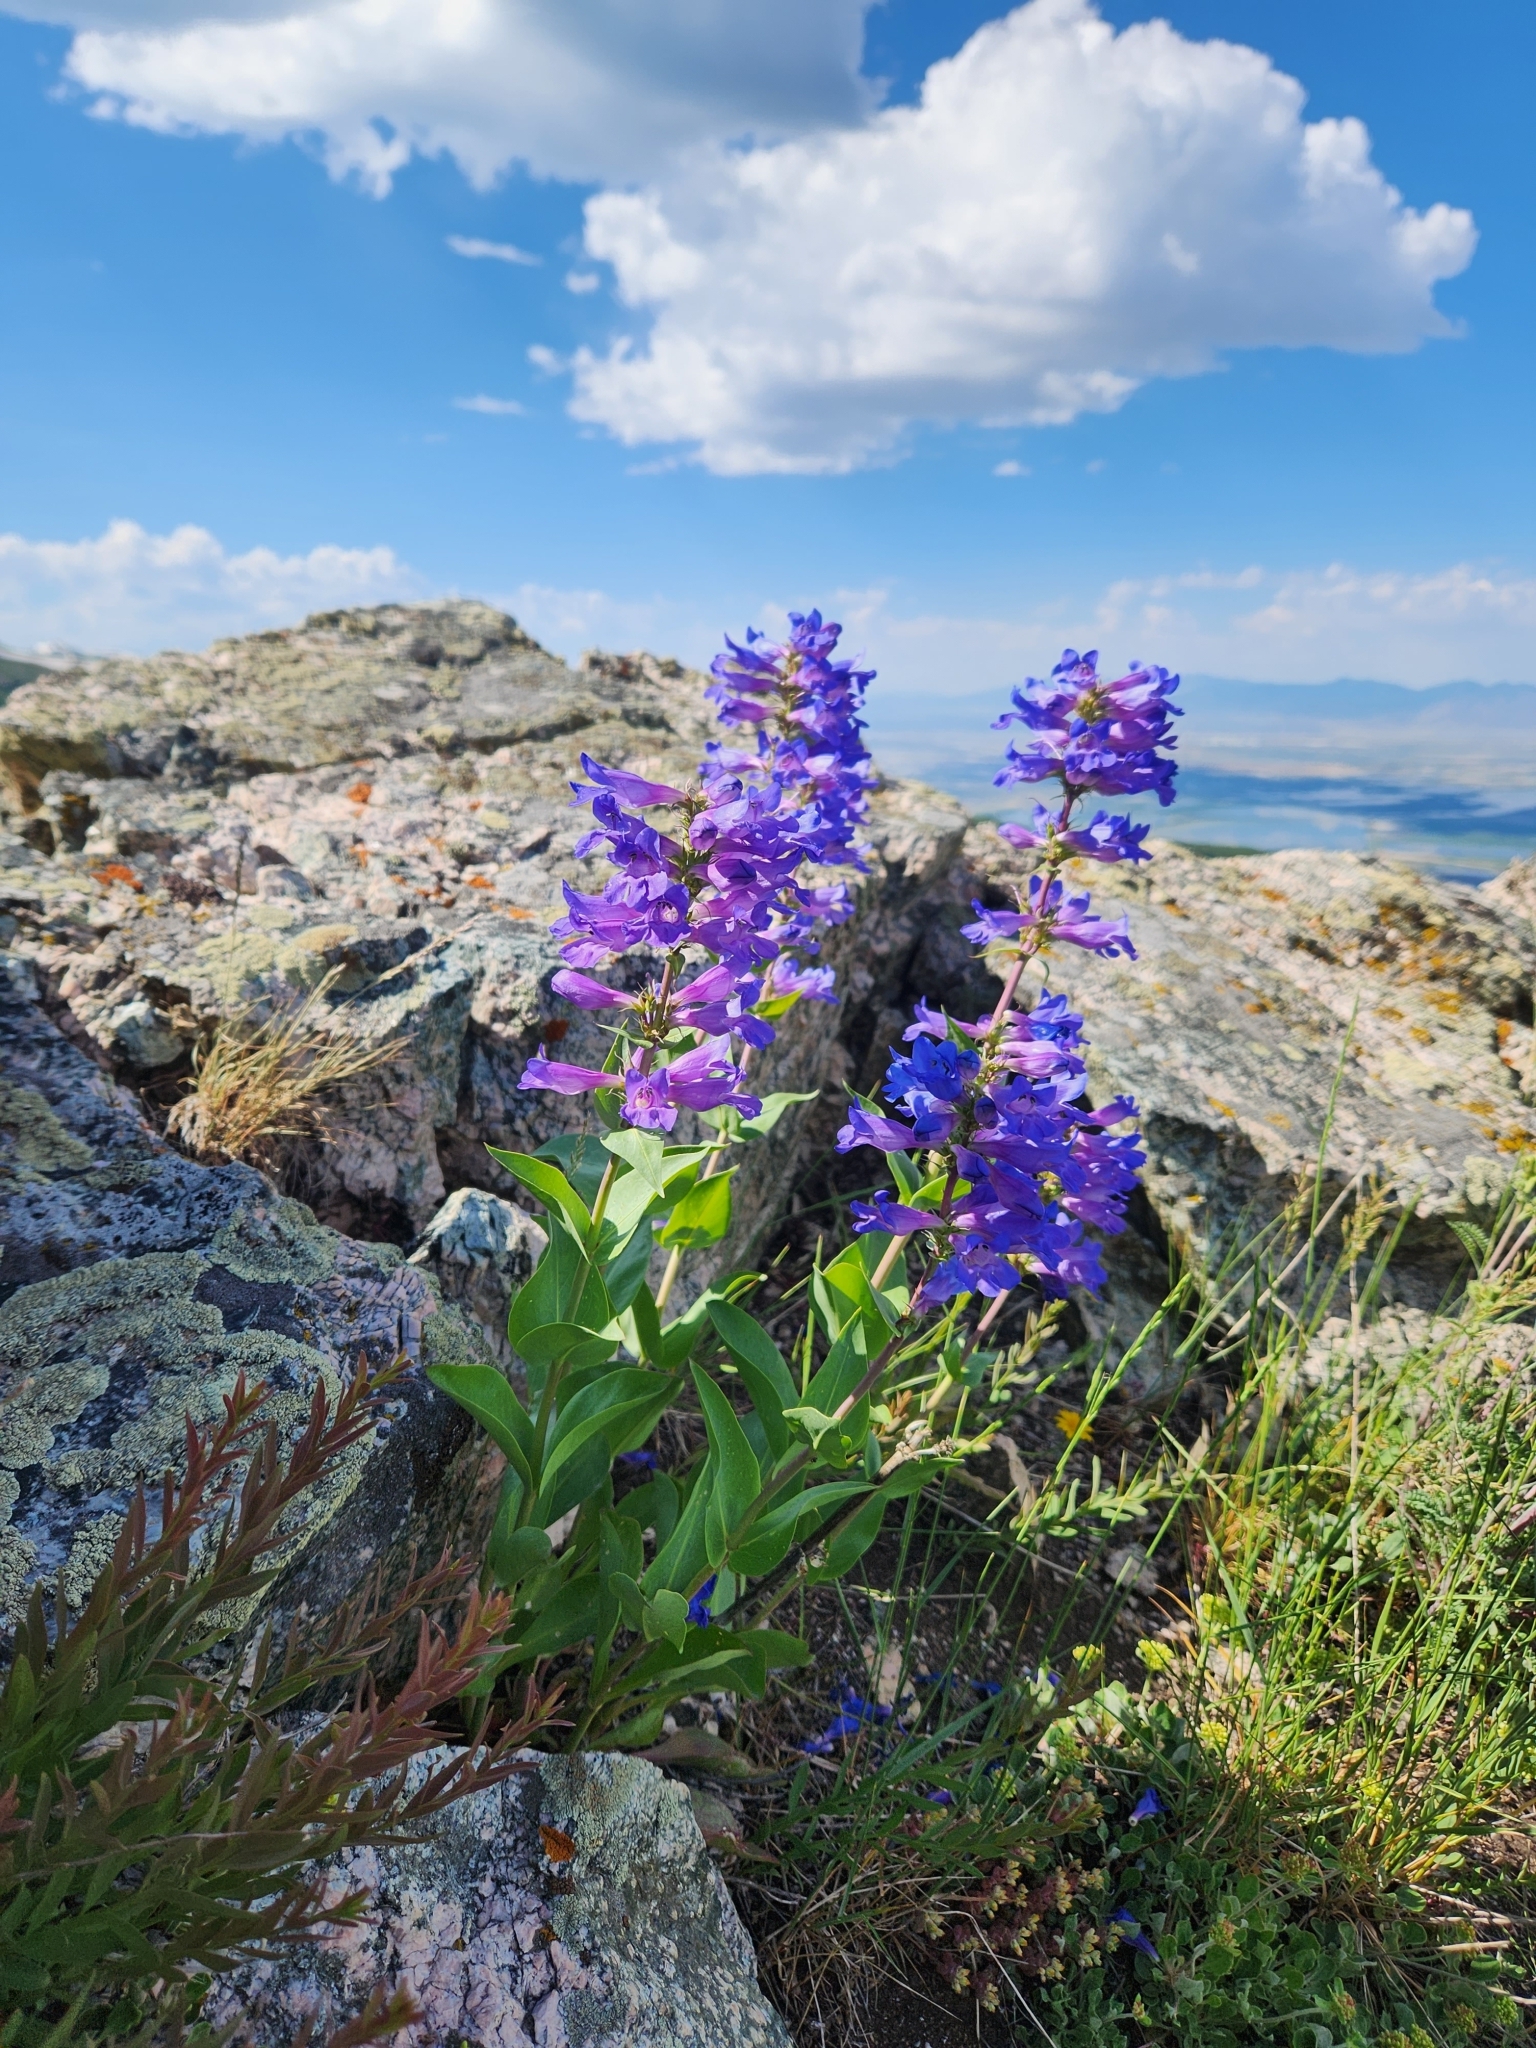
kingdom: Plantae
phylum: Tracheophyta
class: Magnoliopsida
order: Lamiales
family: Plantaginaceae
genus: Penstemon
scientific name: Penstemon cyananthus
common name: Wasatch penstemon
